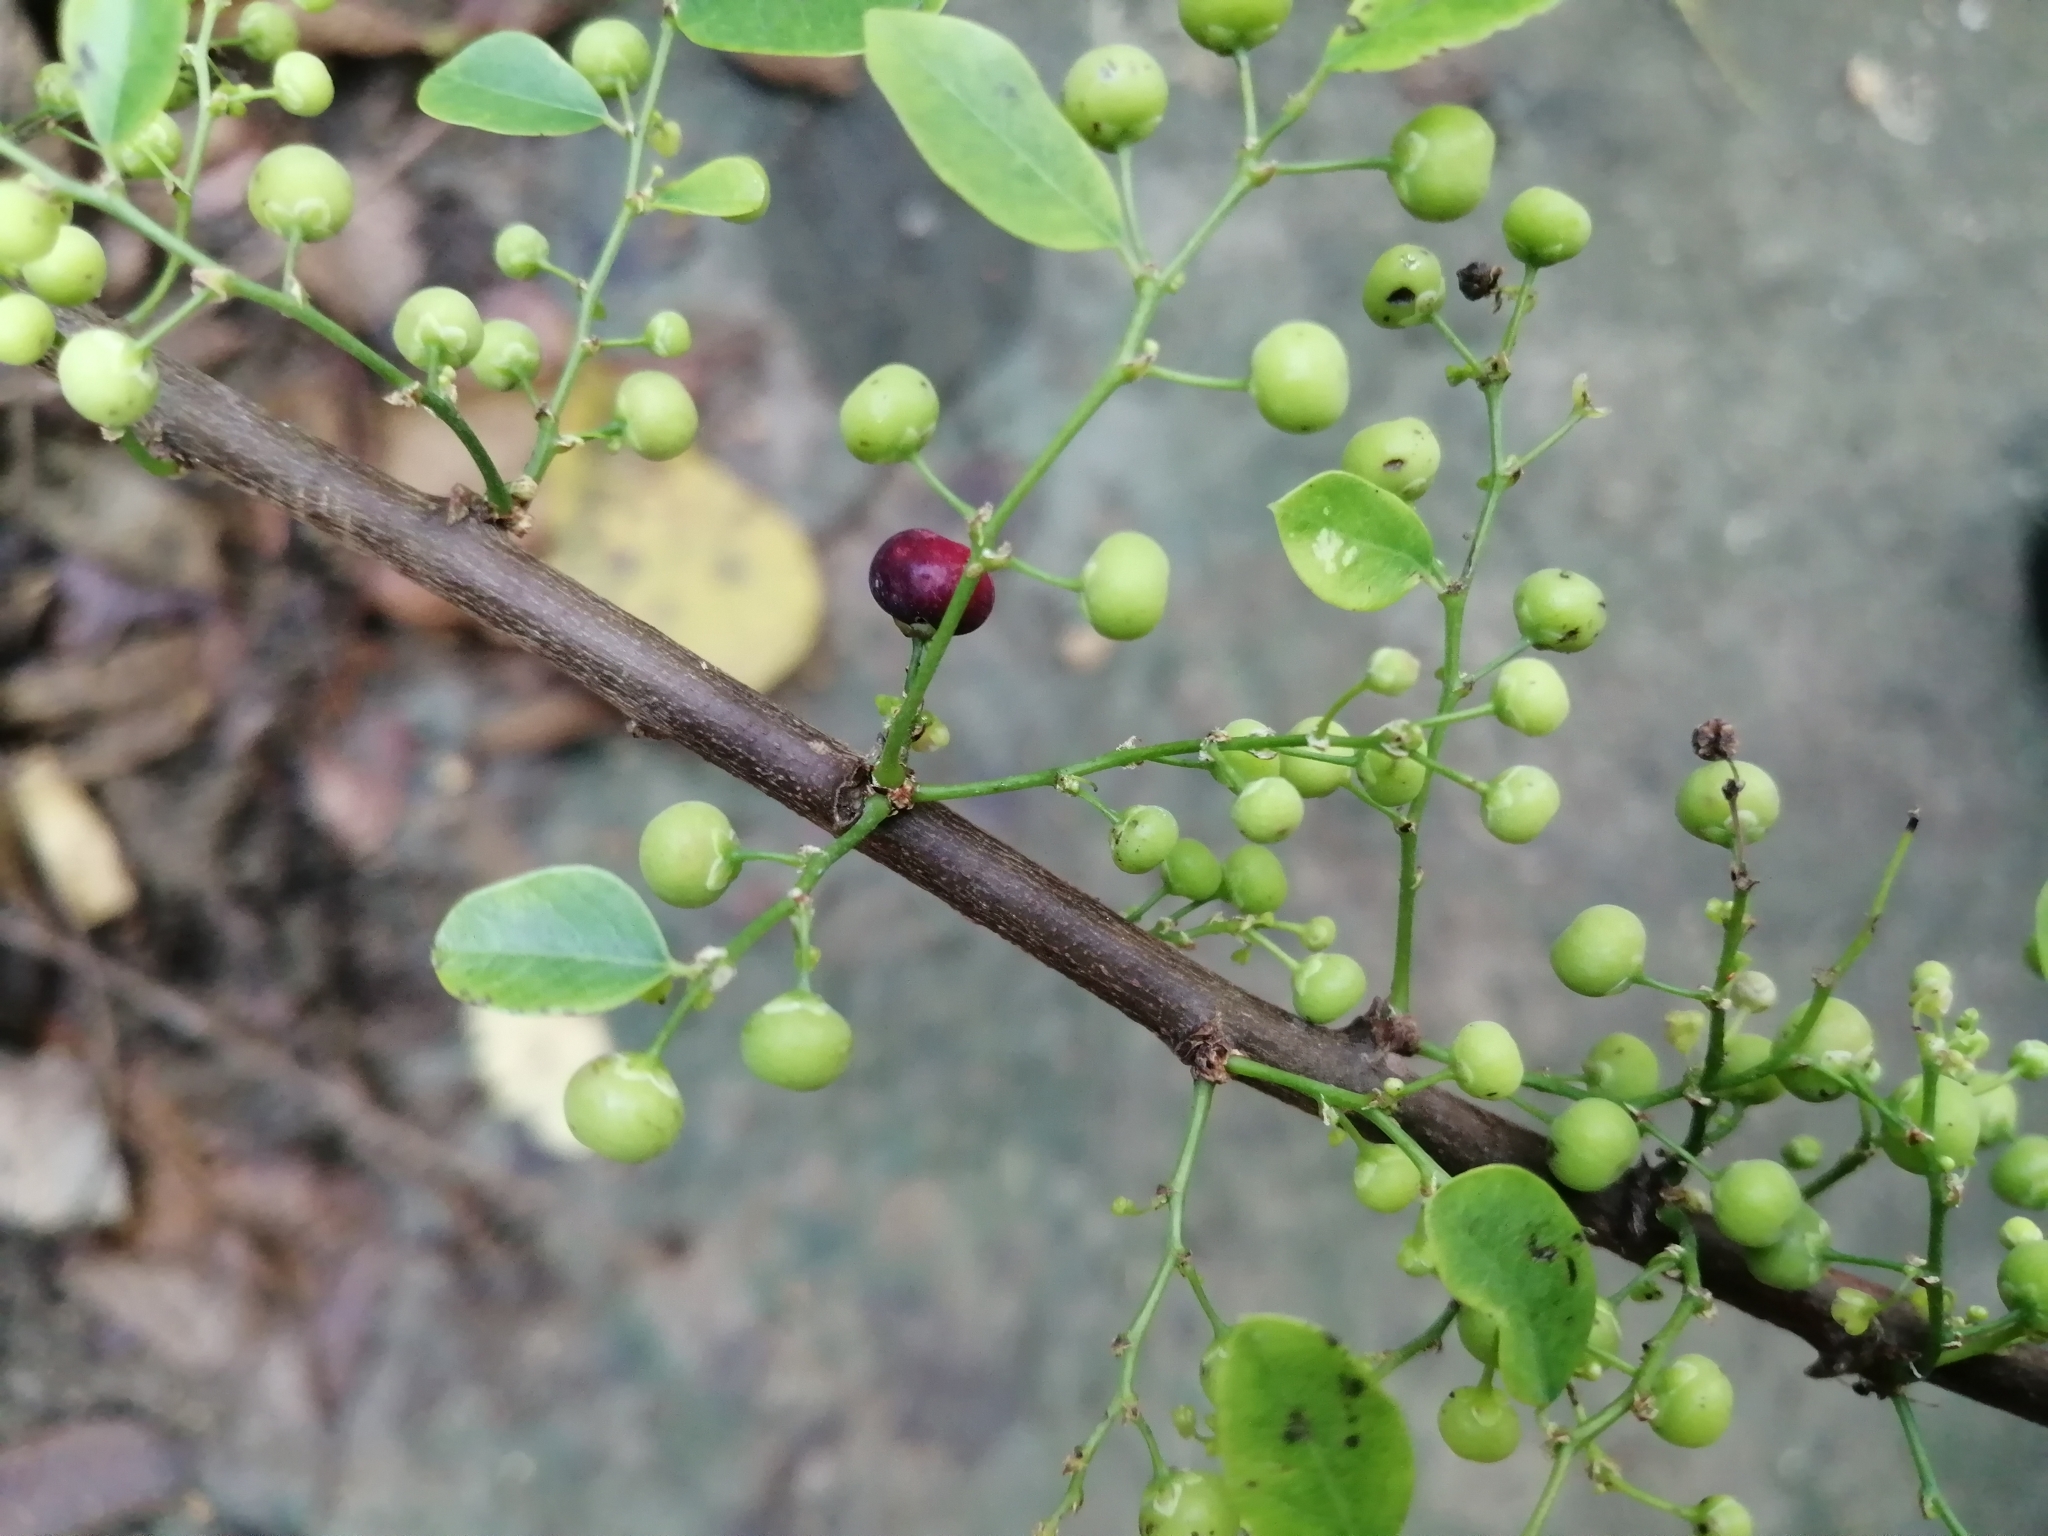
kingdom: Plantae
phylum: Tracheophyta
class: Magnoliopsida
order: Malpighiales
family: Phyllanthaceae
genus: Phyllanthus
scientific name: Phyllanthus reticulatus
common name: Potato bush
